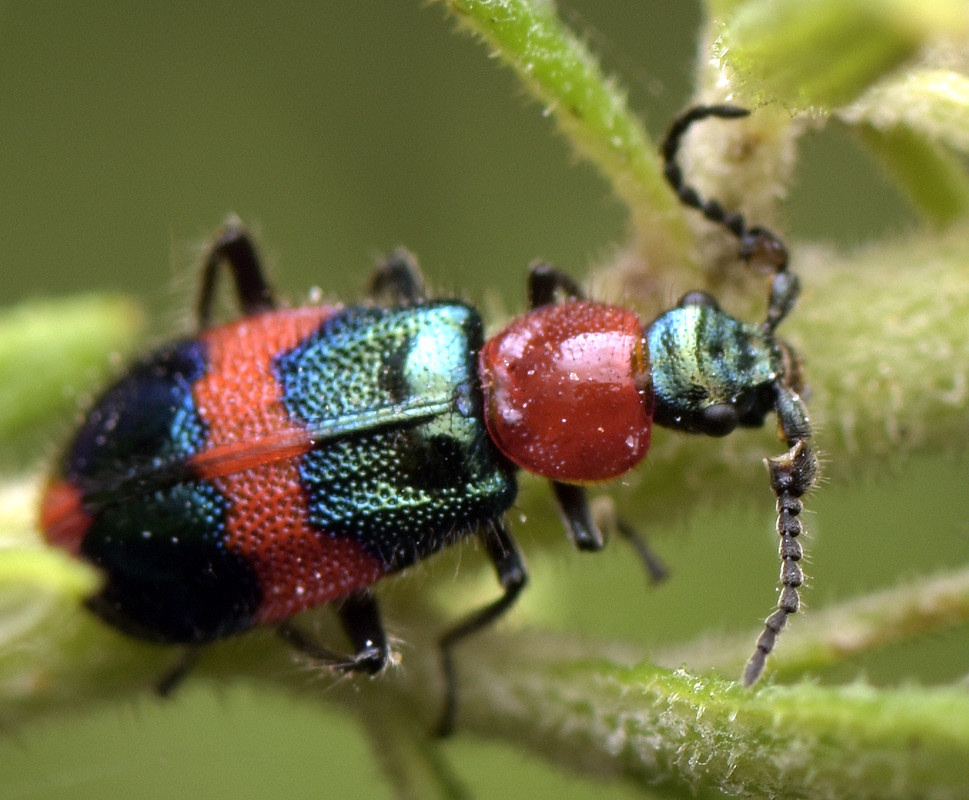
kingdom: Animalia
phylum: Arthropoda
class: Insecta
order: Coleoptera
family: Melyridae
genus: Dicranolaius
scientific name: Dicranolaius bellulus
